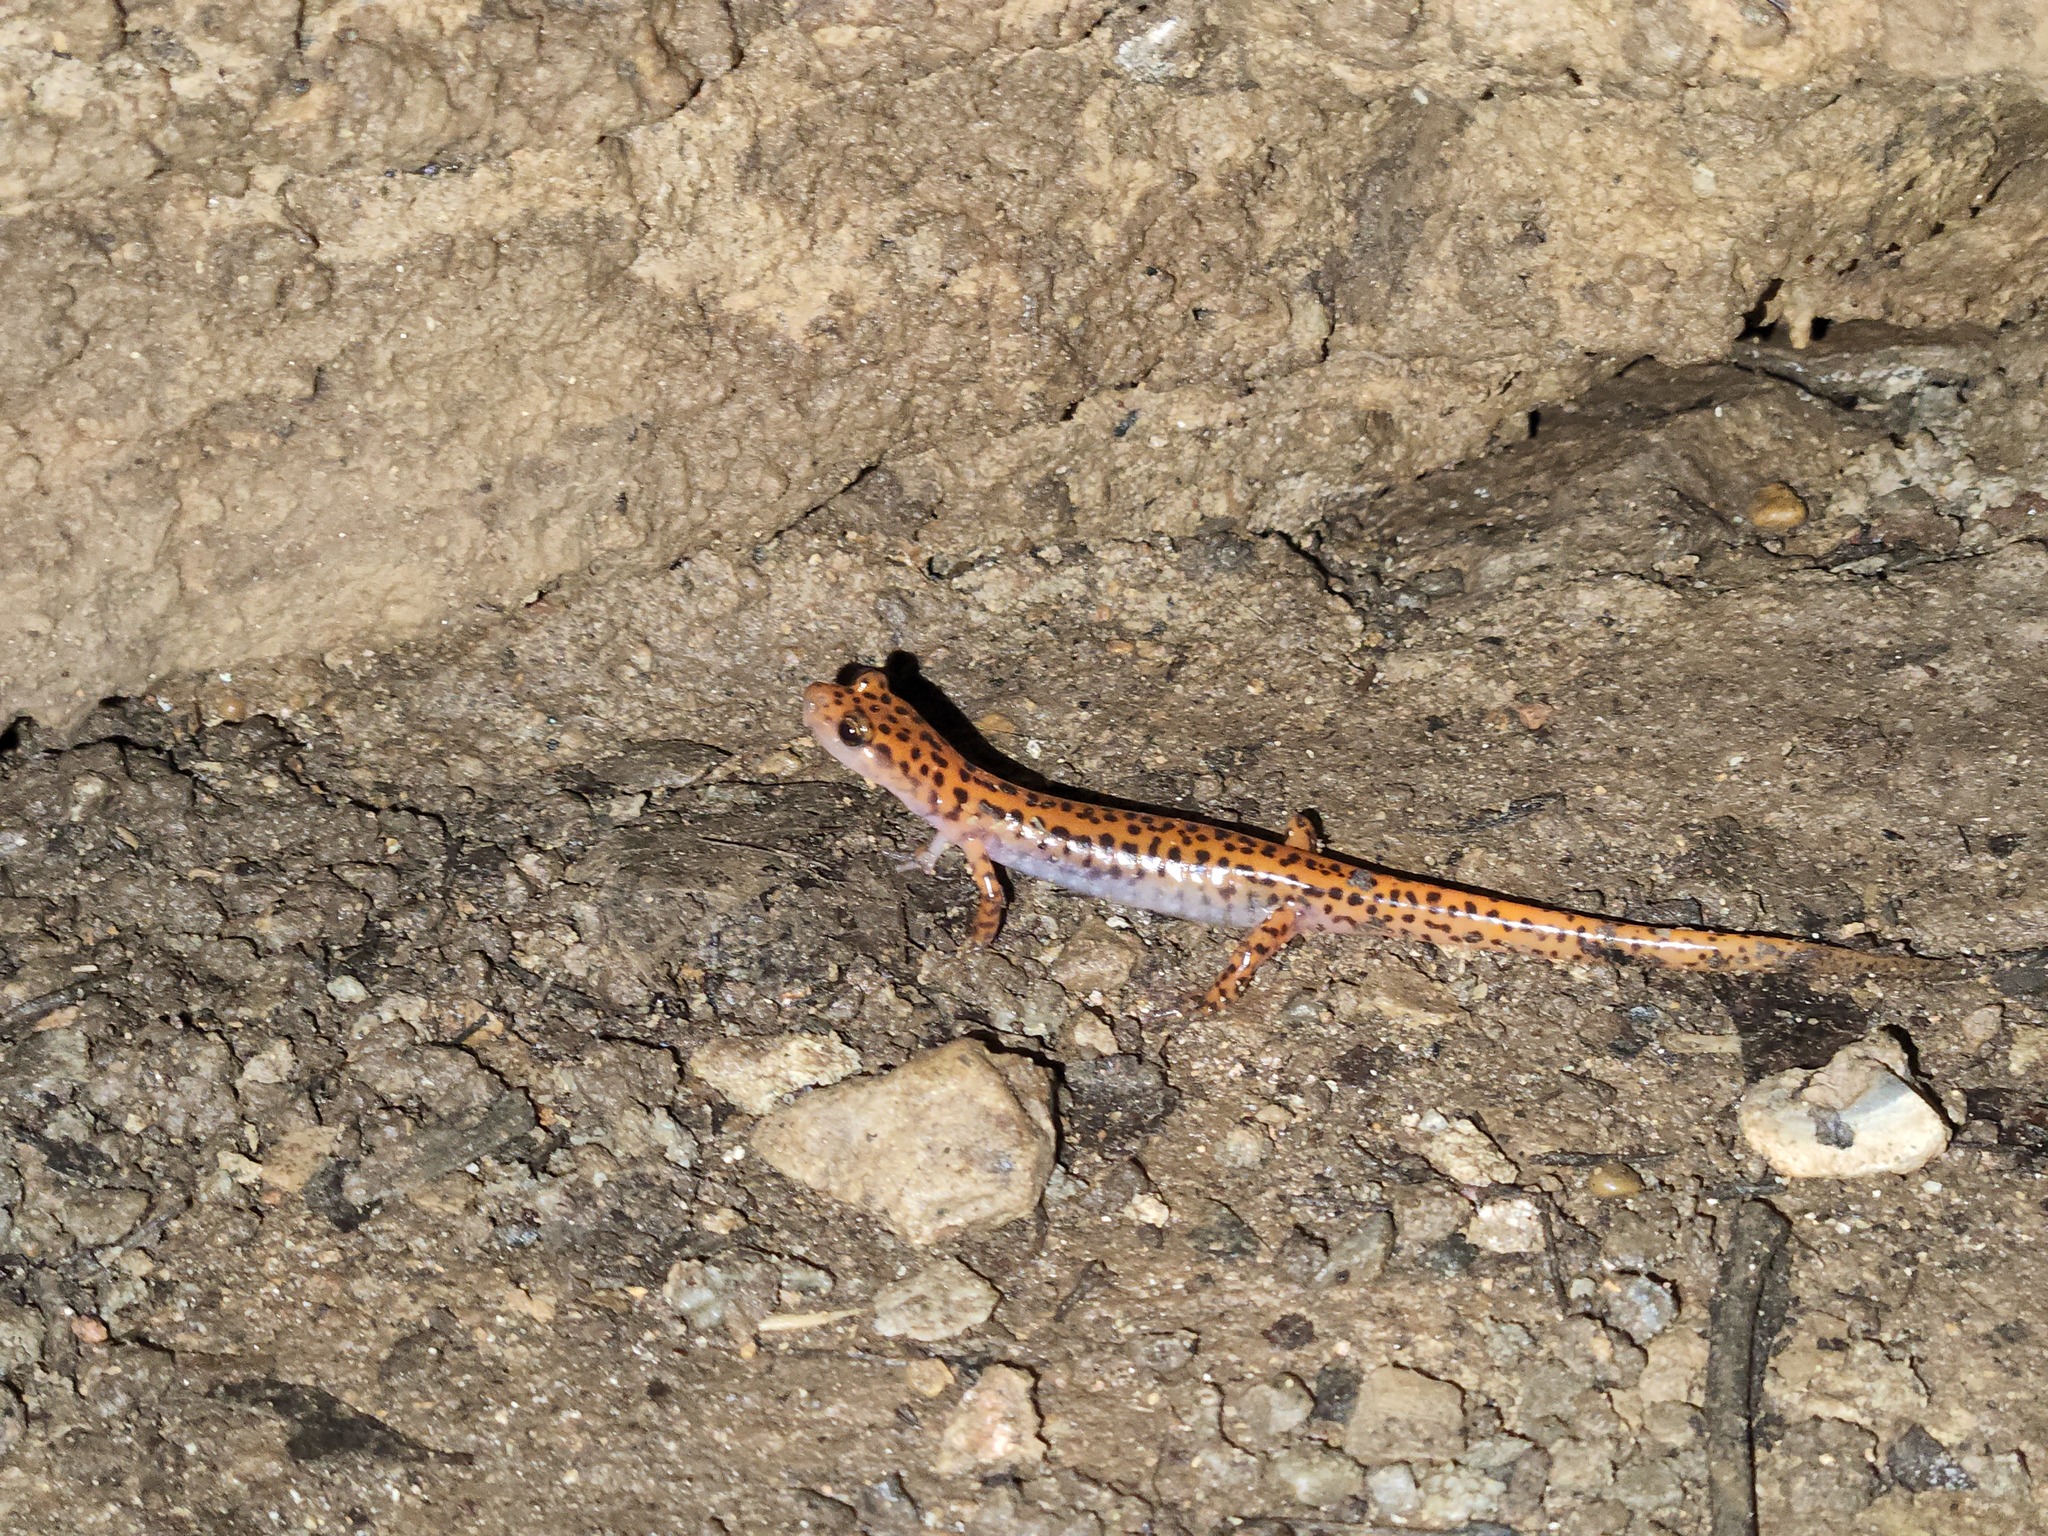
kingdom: Animalia
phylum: Chordata
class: Amphibia
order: Caudata
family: Plethodontidae
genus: Eurycea
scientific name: Eurycea lucifuga
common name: Cave salamander
